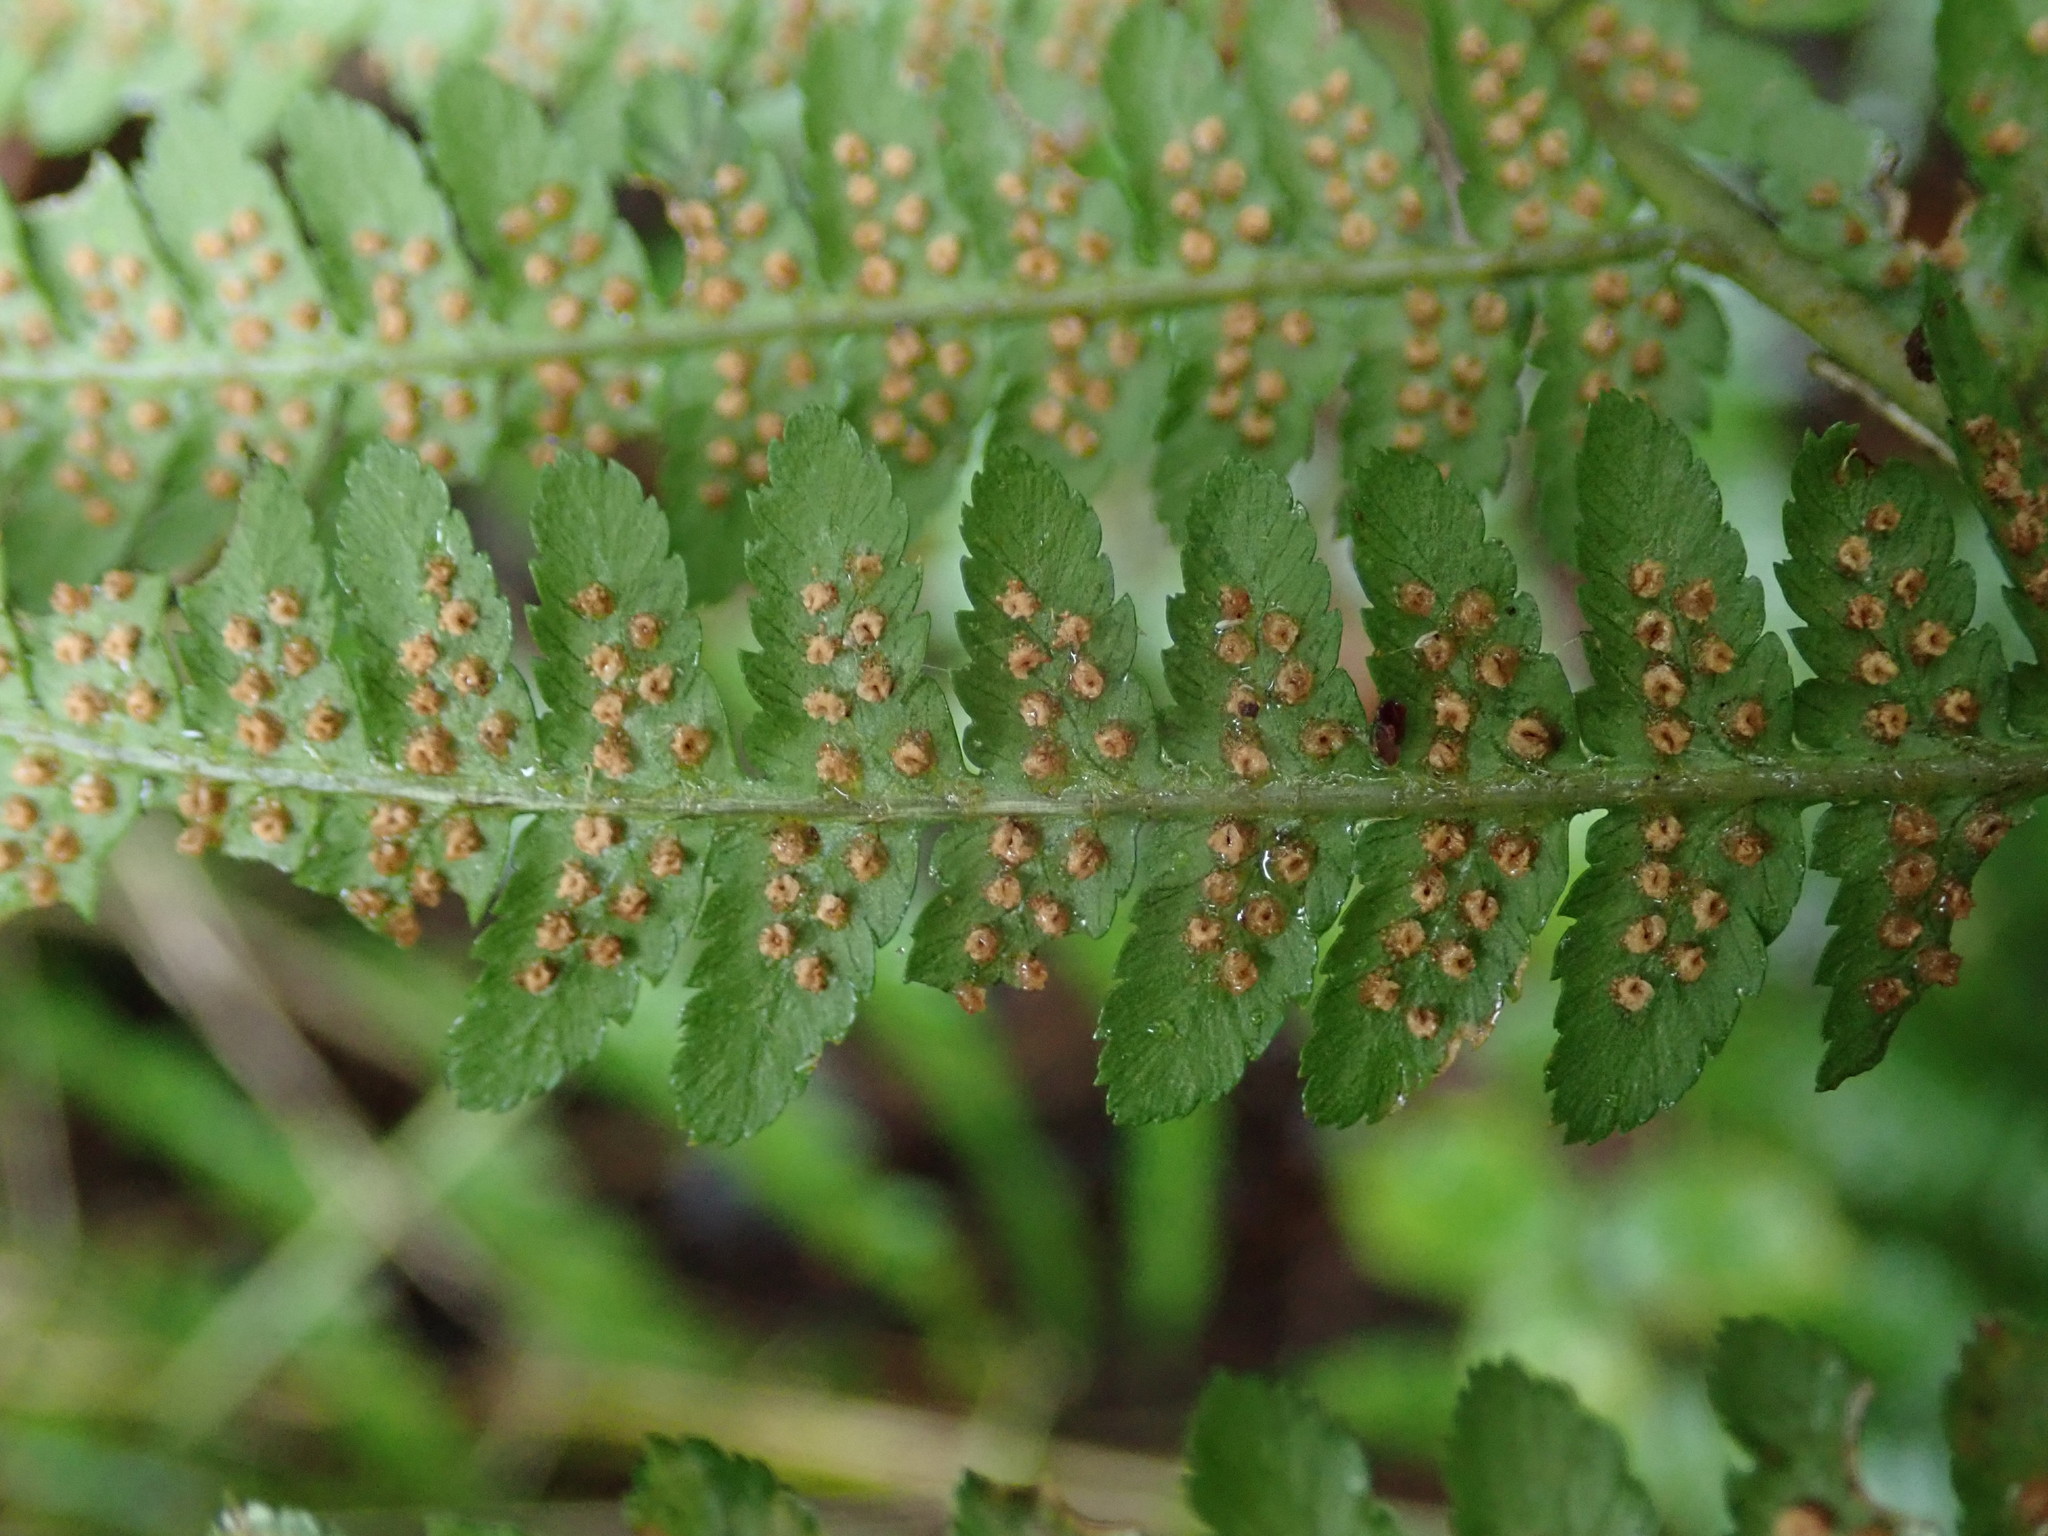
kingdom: Plantae
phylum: Tracheophyta
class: Polypodiopsida
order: Polypodiales
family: Dryopteridaceae
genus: Dryopteris
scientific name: Dryopteris filix-mas
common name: Male fern
